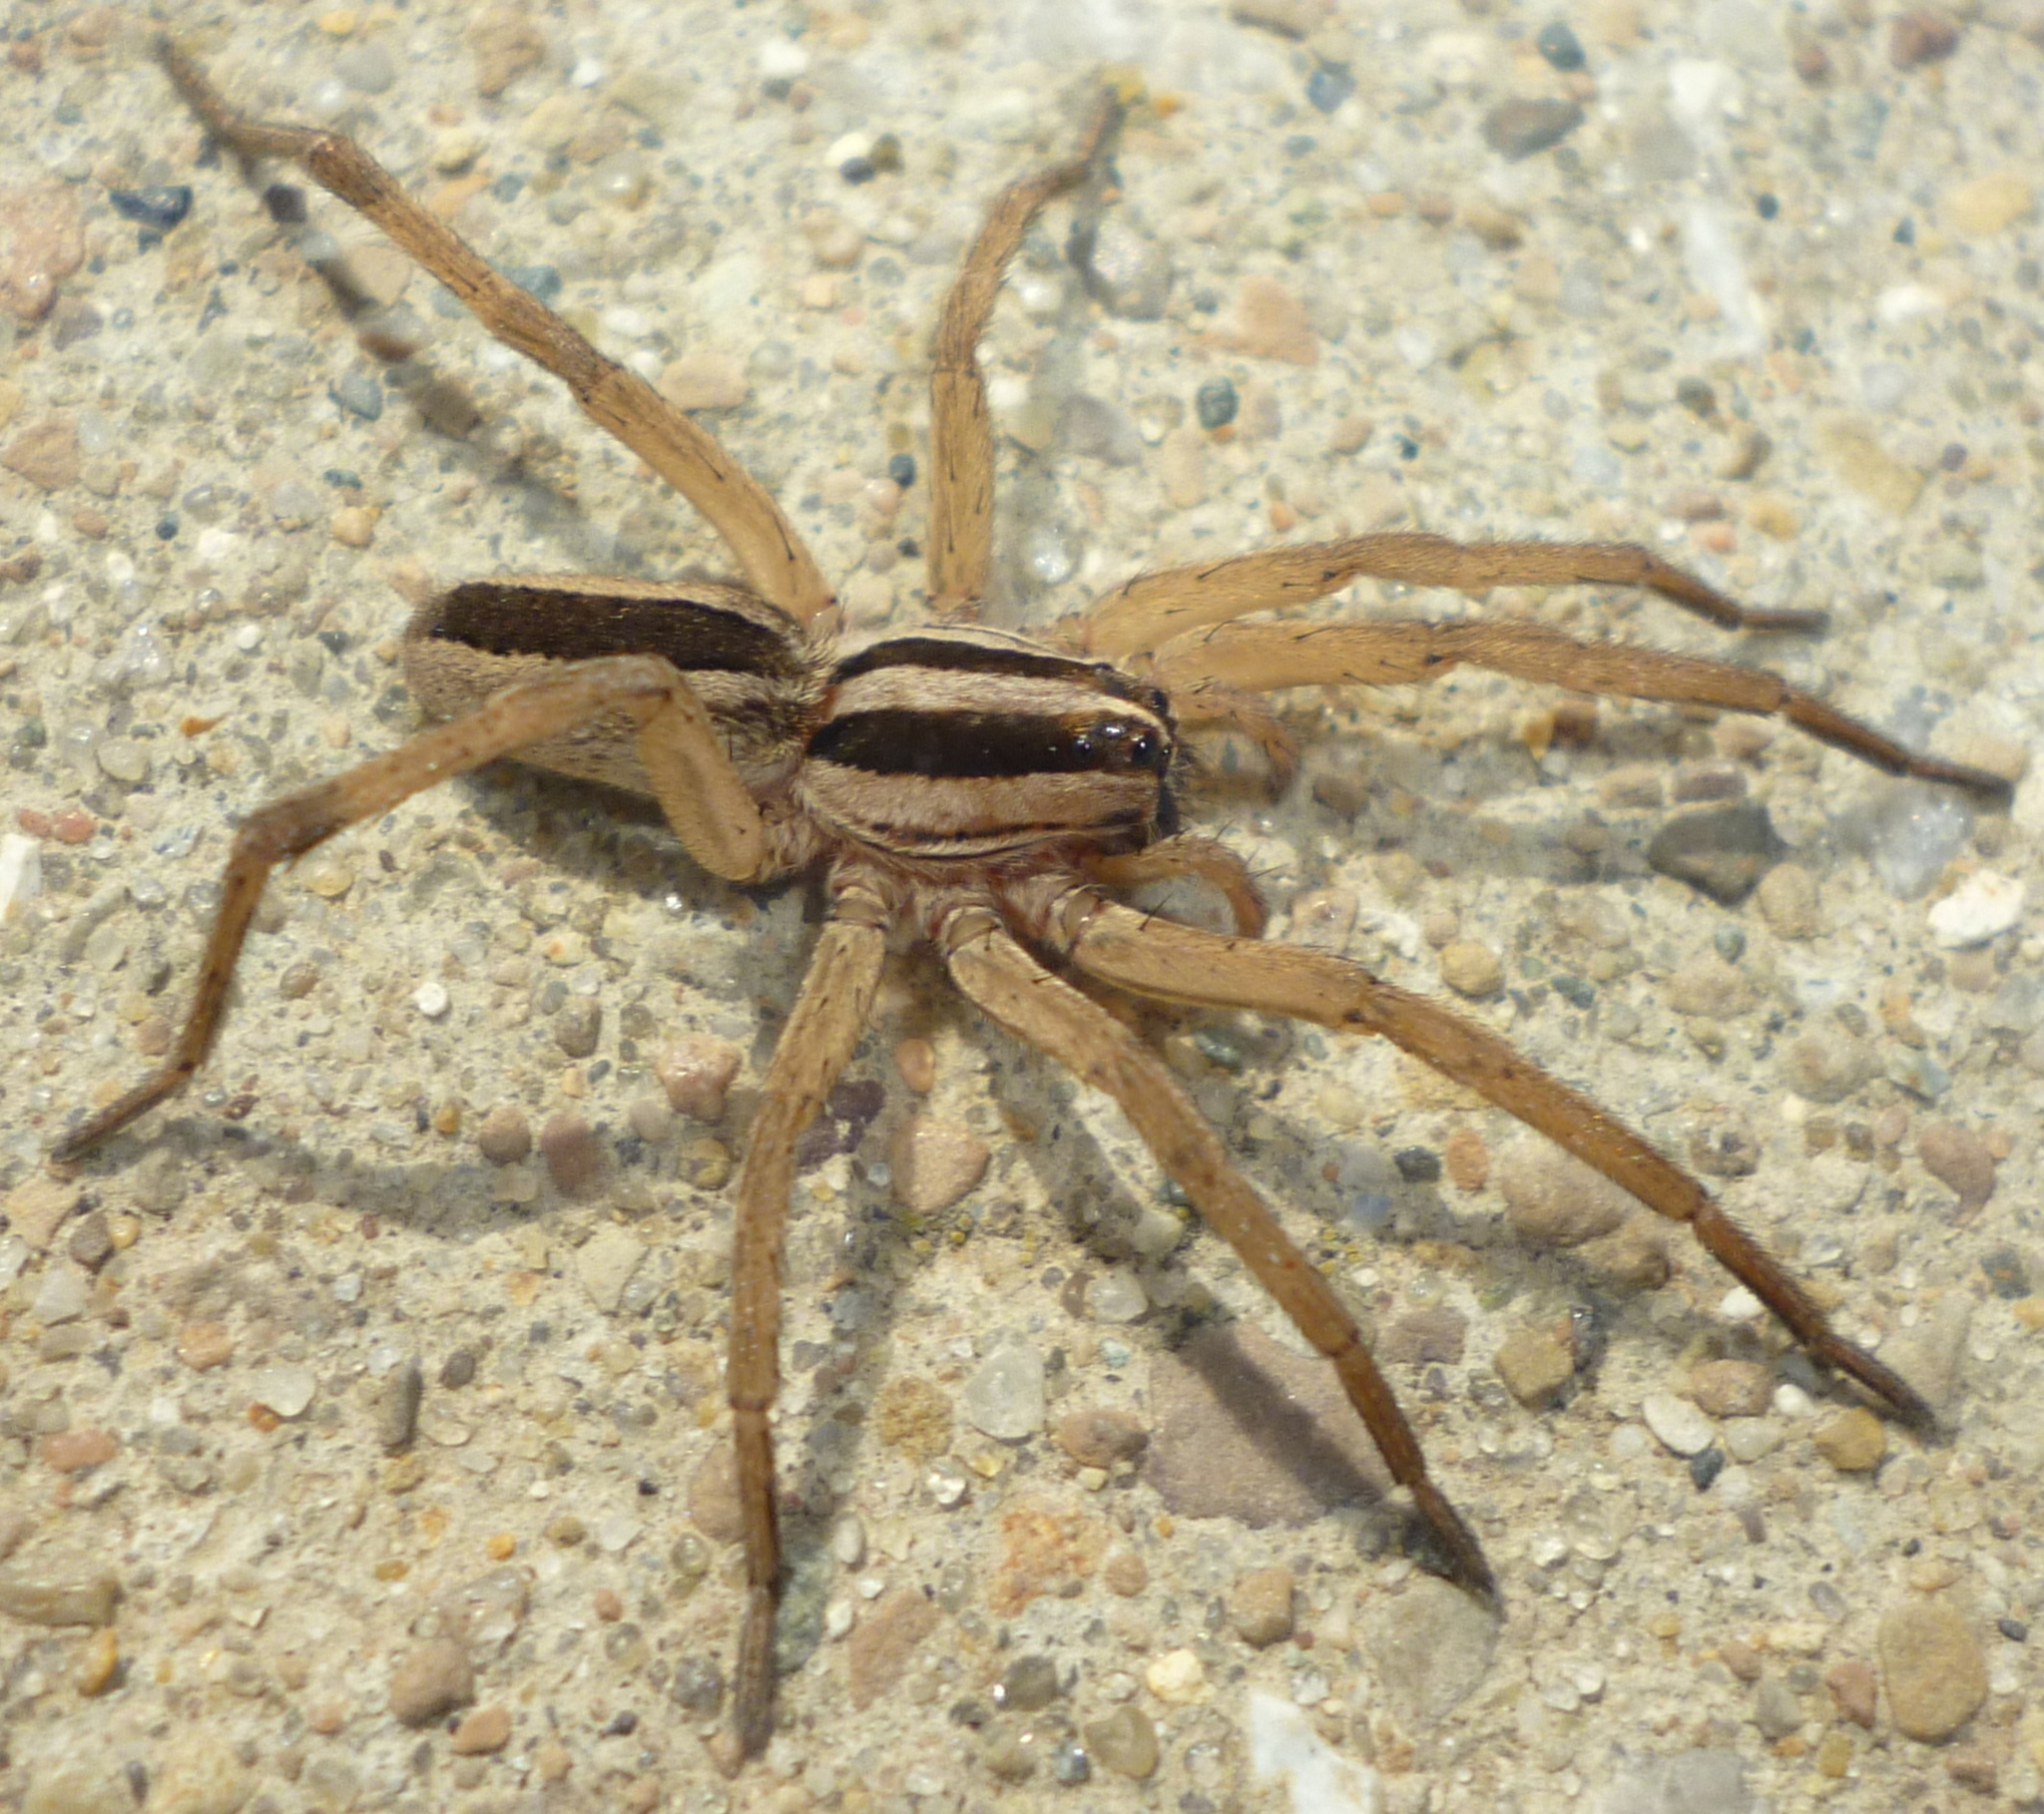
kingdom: Animalia
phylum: Arthropoda
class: Arachnida
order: Araneae
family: Lycosidae
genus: Rabidosa
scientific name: Rabidosa punctulata
